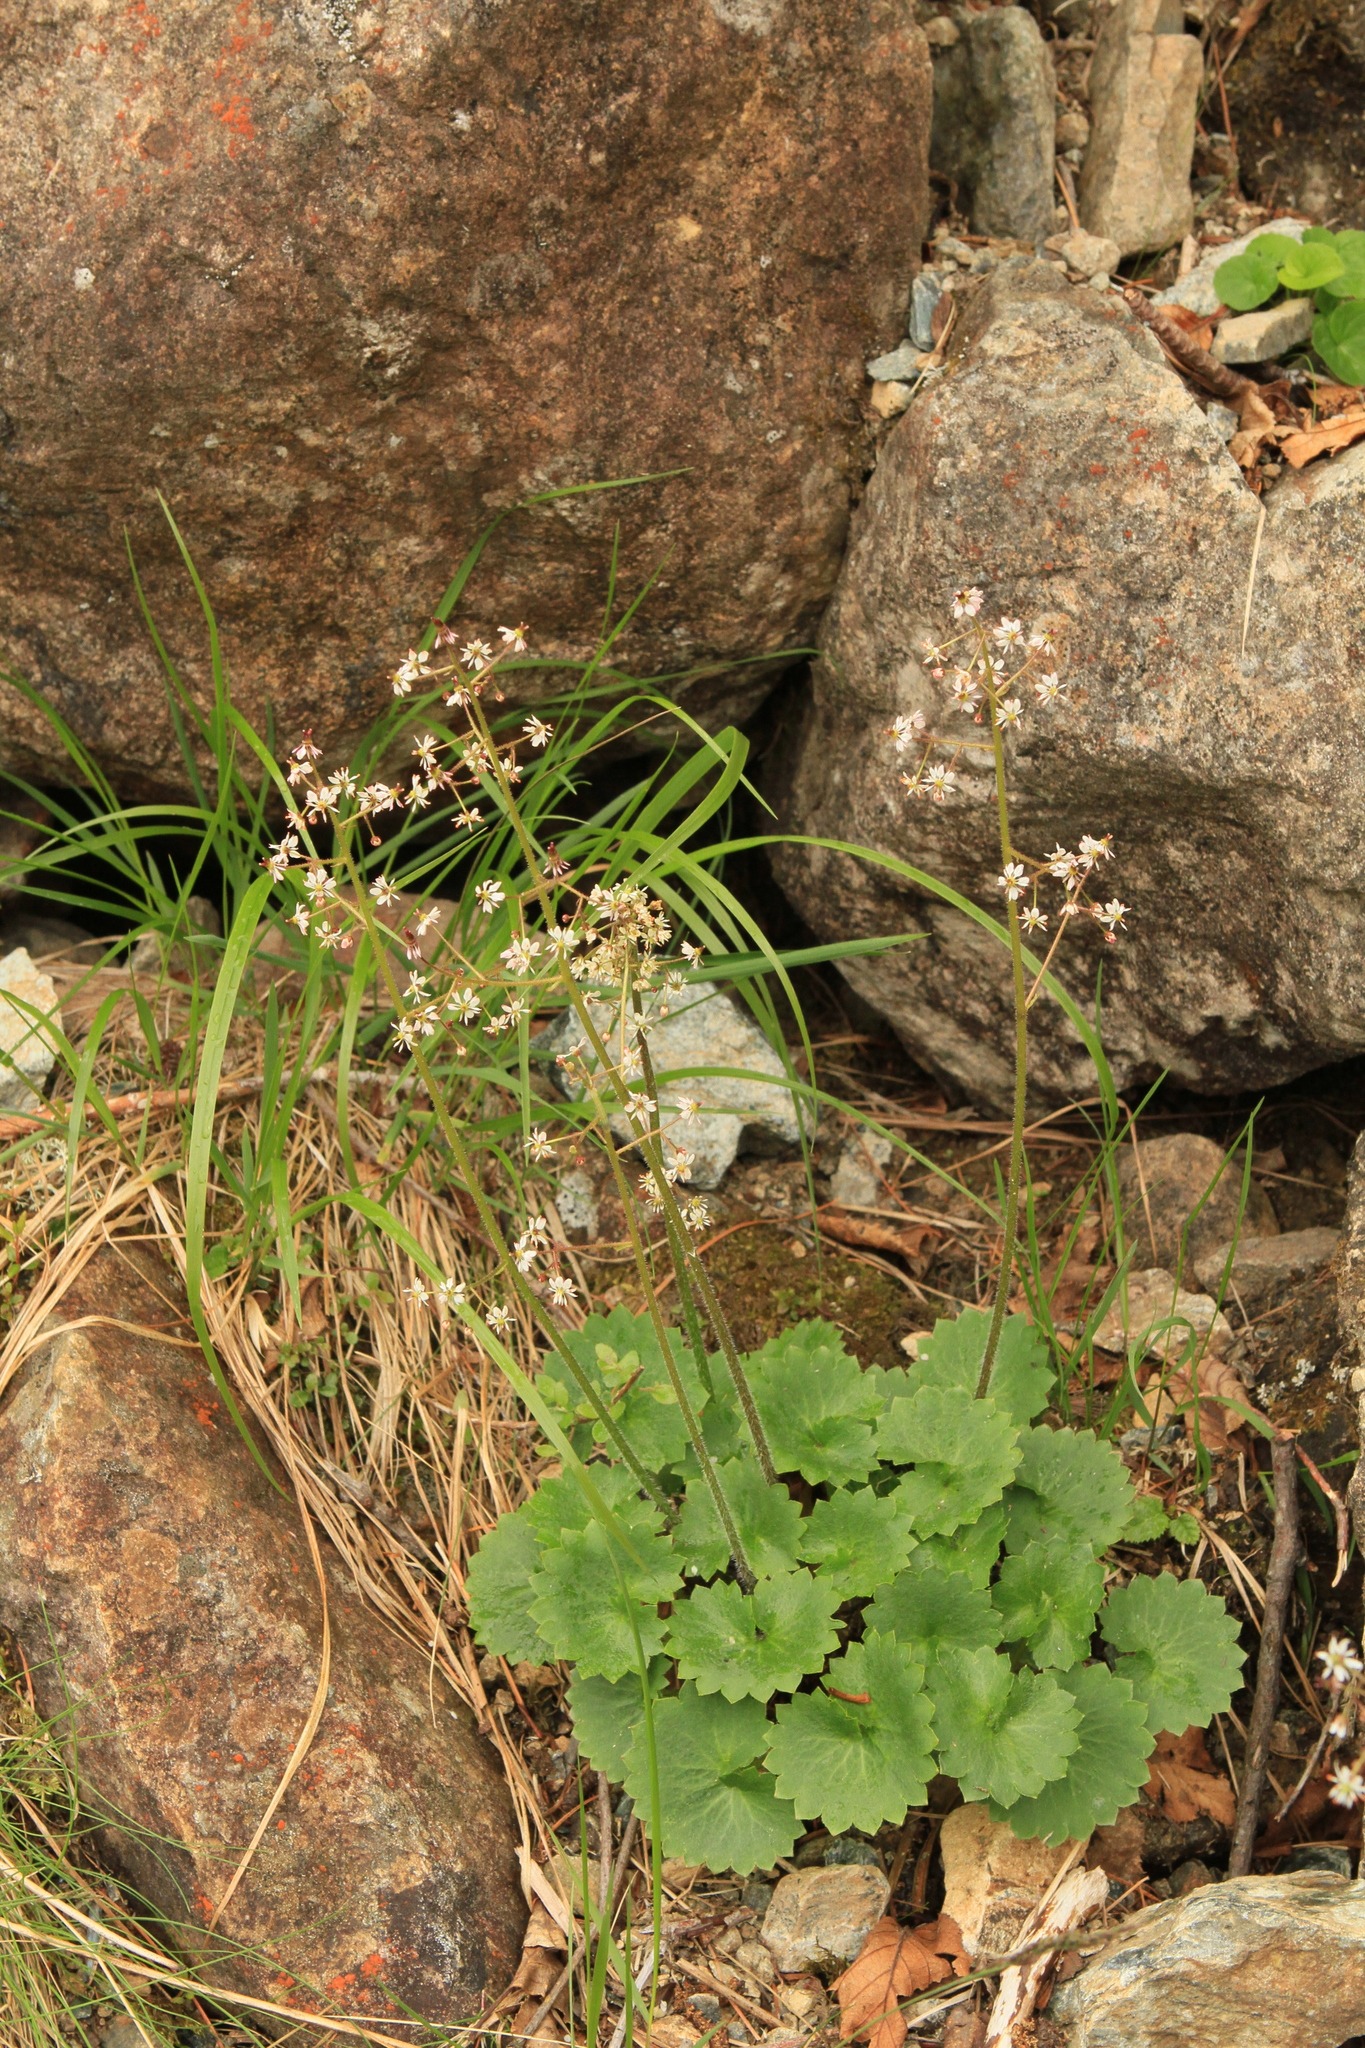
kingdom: Plantae
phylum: Tracheophyta
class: Magnoliopsida
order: Saxifragales
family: Saxifragaceae
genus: Micranthes
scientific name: Micranthes nelsoniana
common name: Nelson's saxifrage
